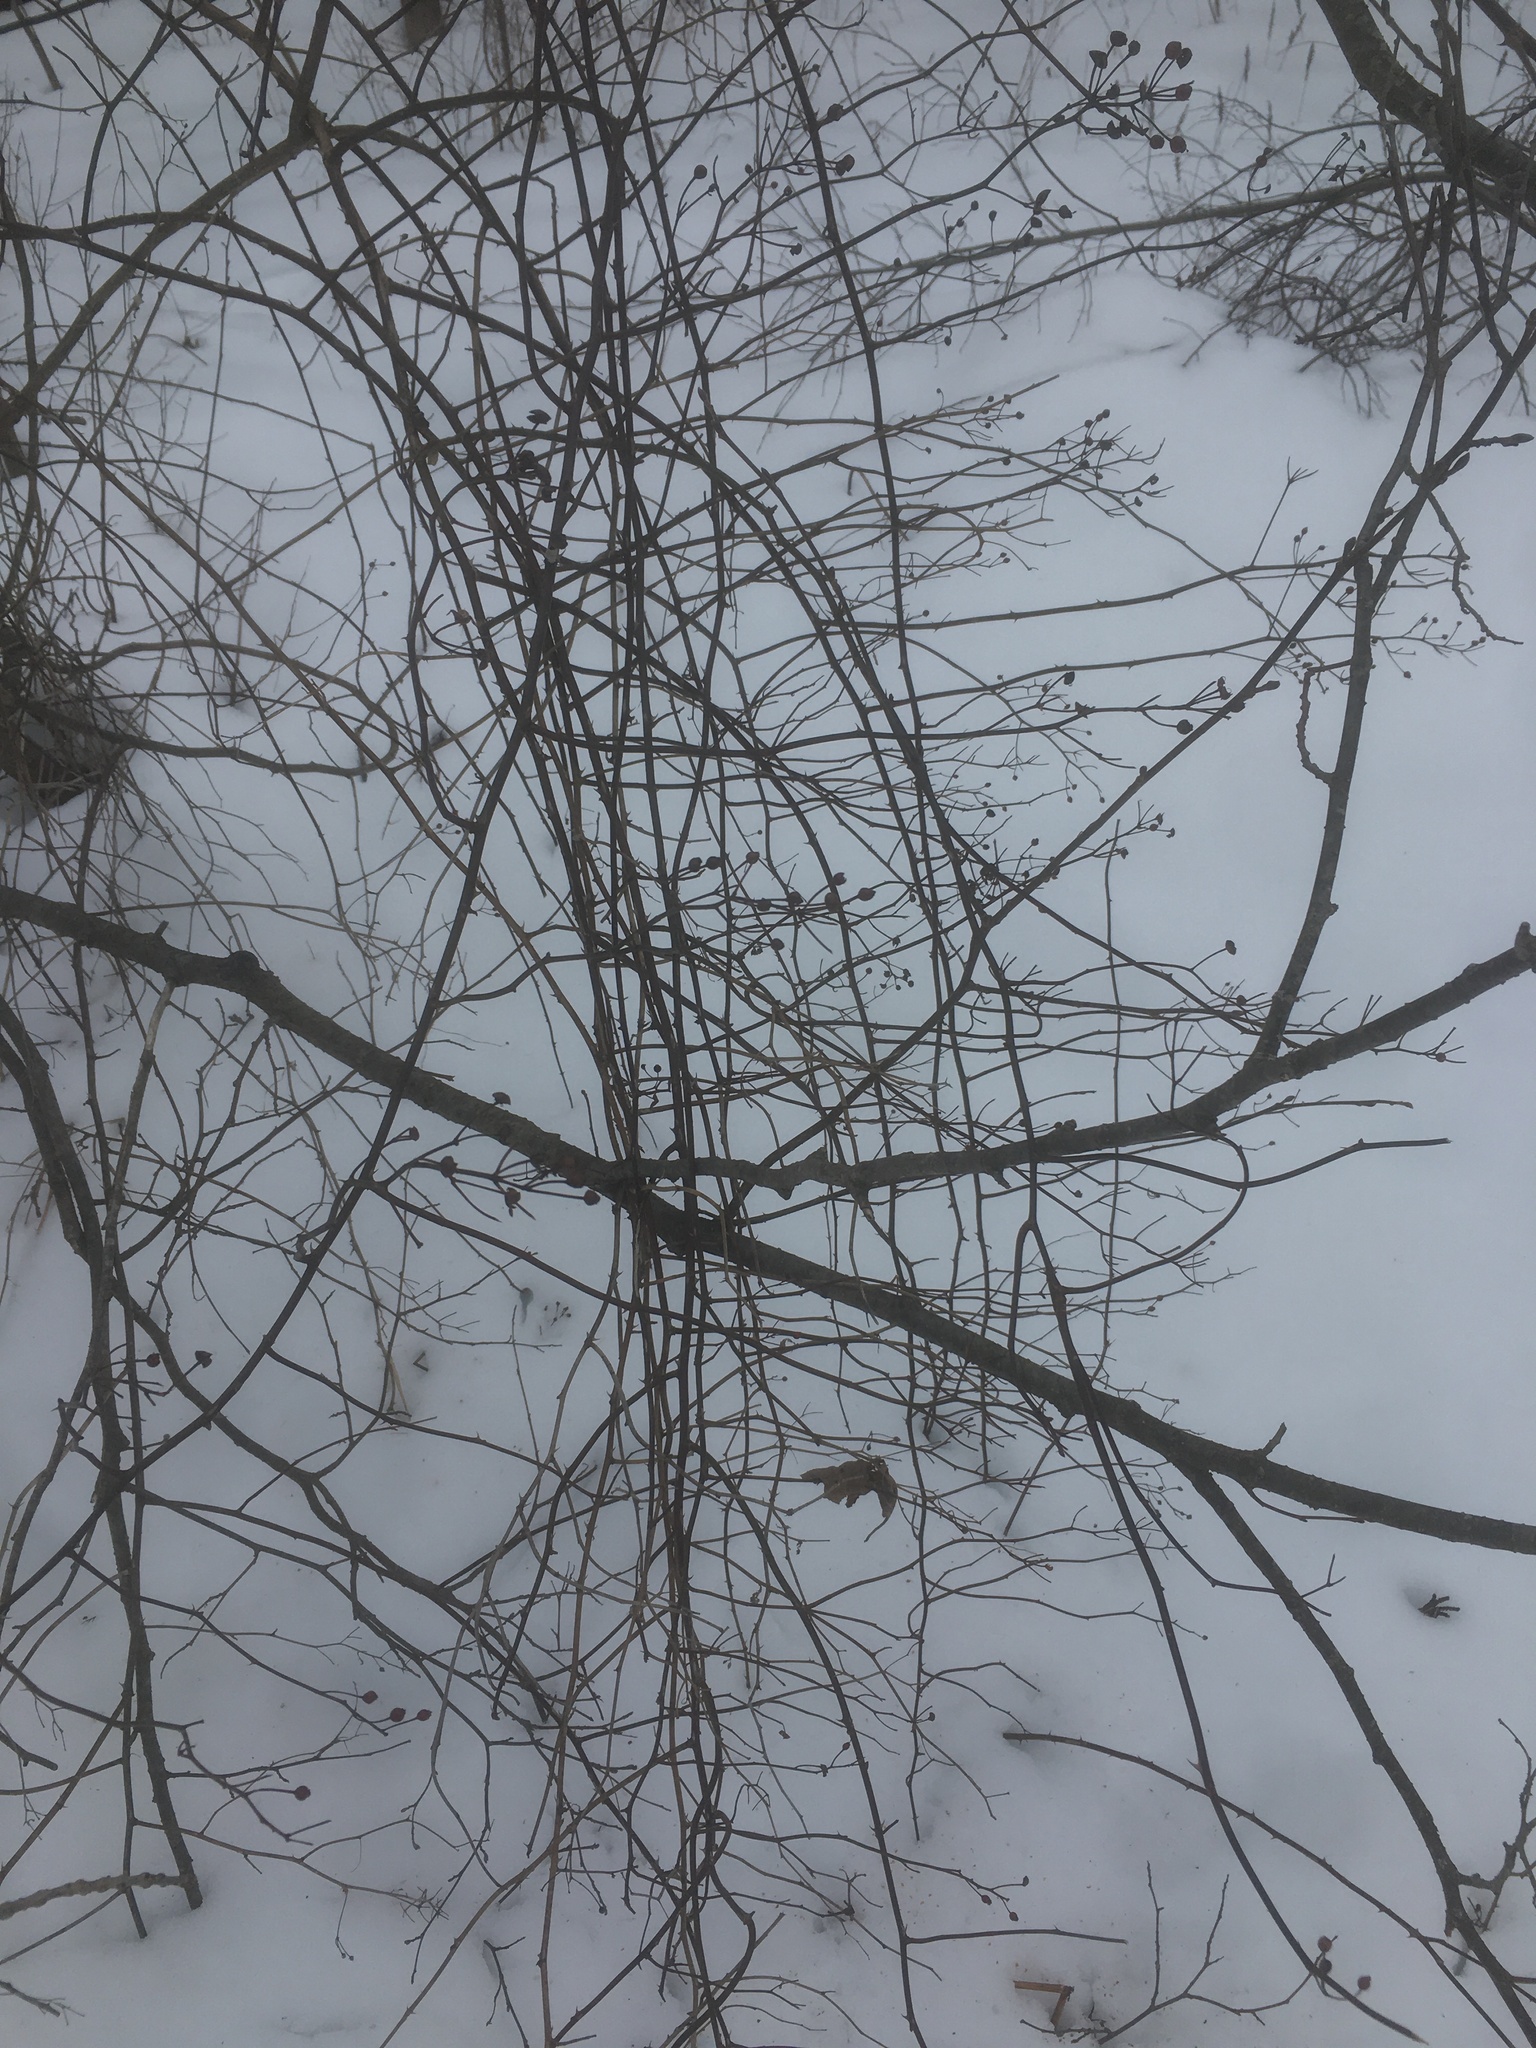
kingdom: Plantae
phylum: Tracheophyta
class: Magnoliopsida
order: Rosales
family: Rosaceae
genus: Rosa
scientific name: Rosa multiflora
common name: Multiflora rose
